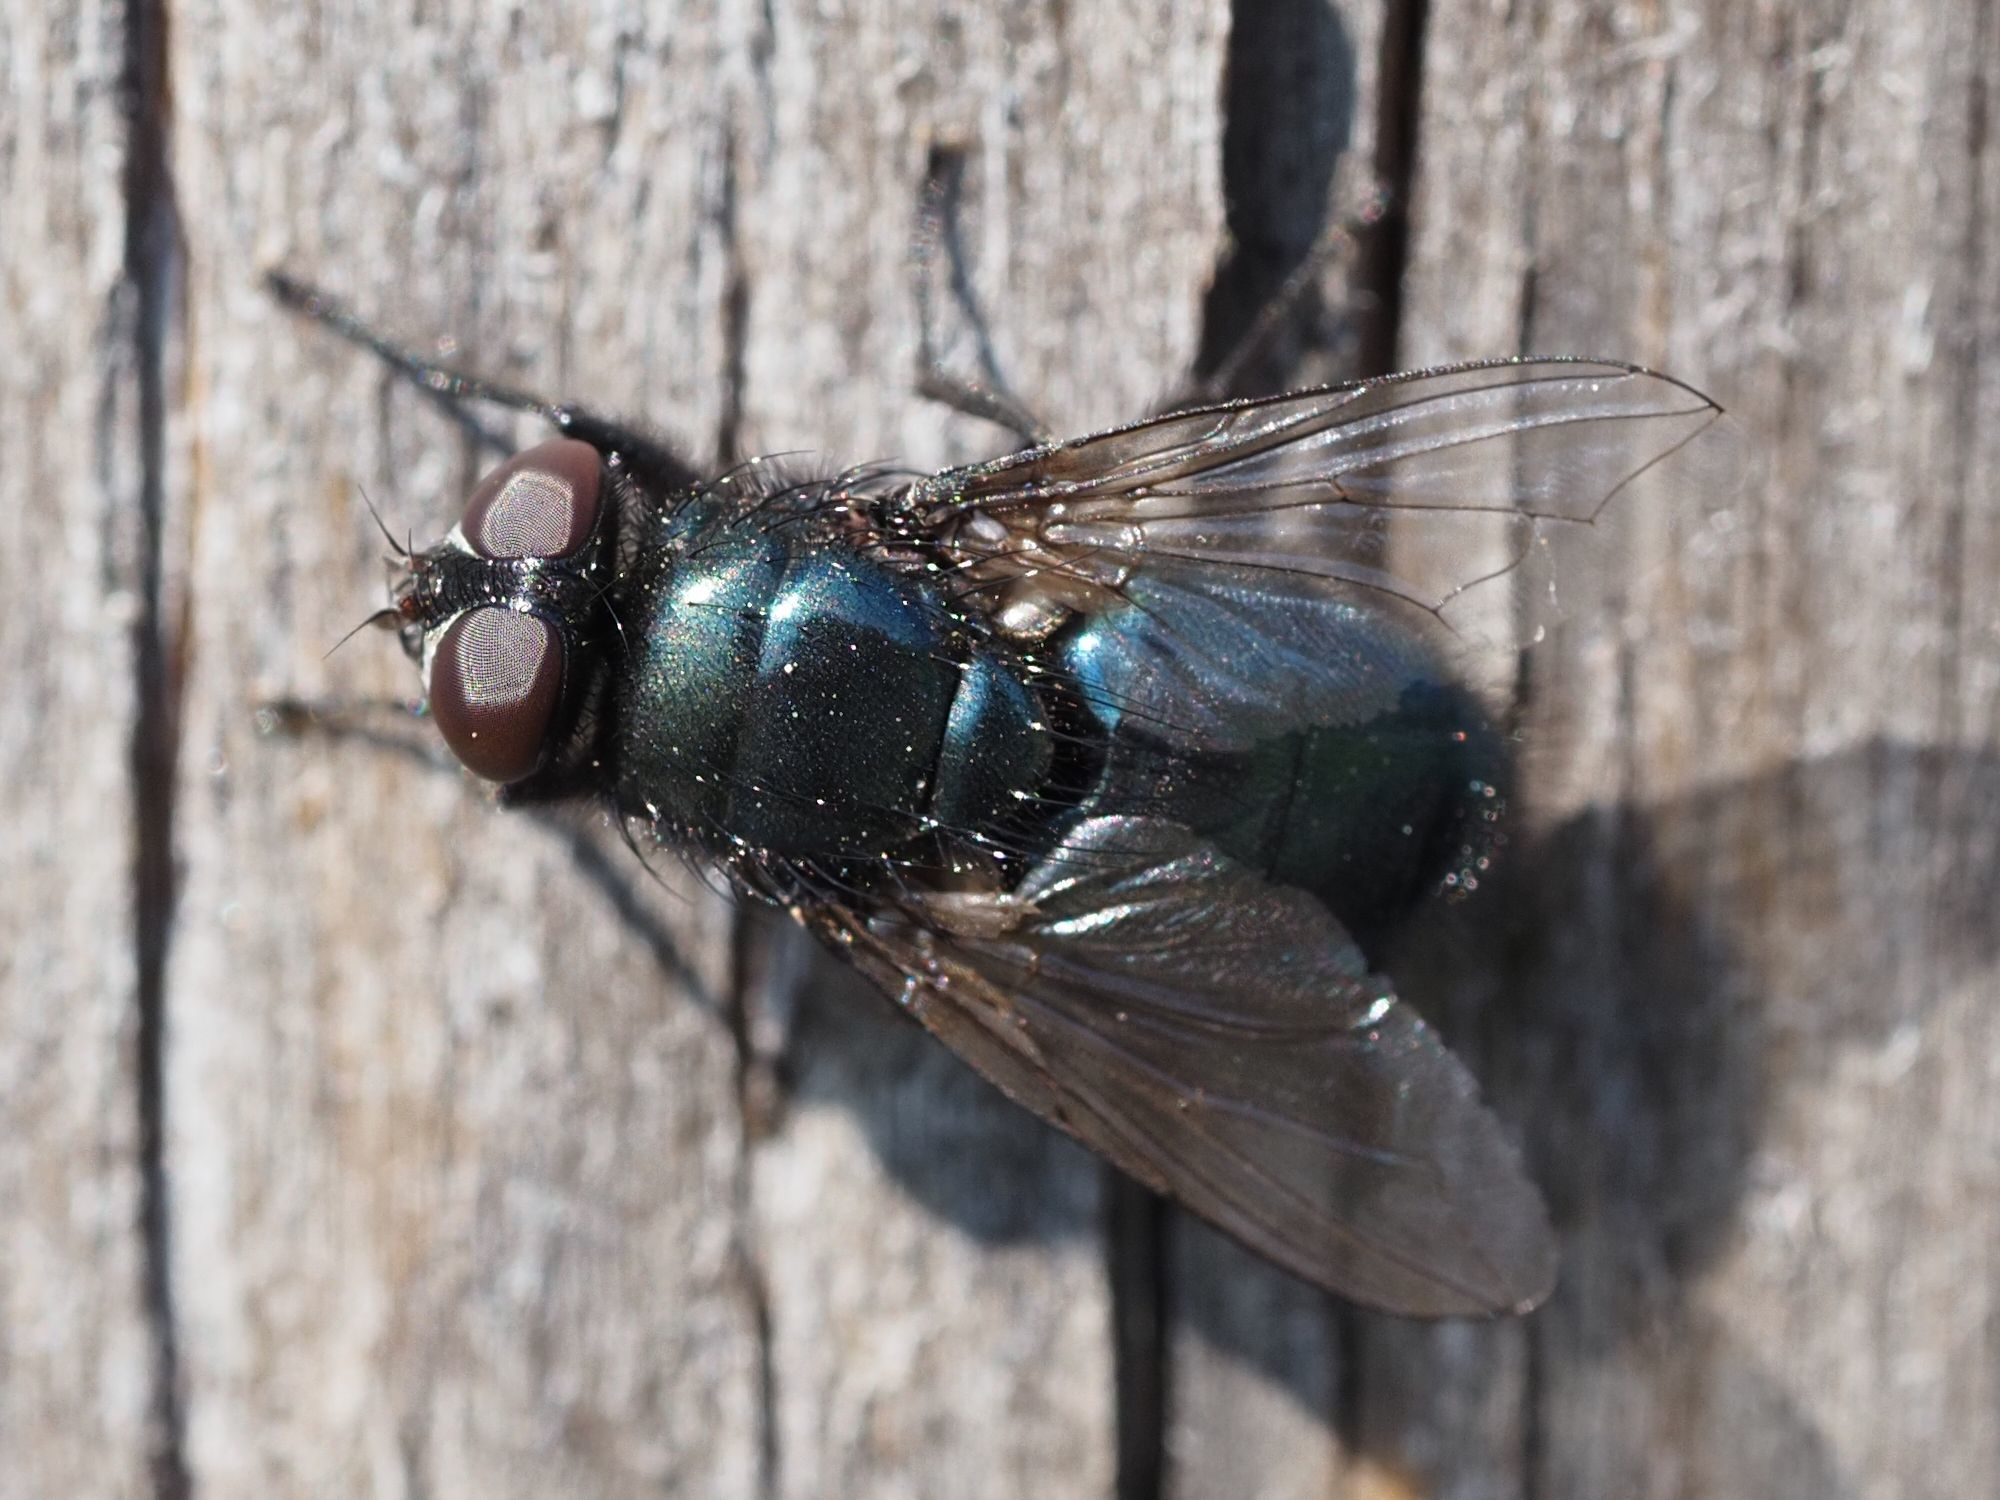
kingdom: Animalia
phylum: Arthropoda
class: Insecta
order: Diptera
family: Calliphoridae
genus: Protophormia
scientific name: Protophormia terraenovae
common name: Blackbottle
